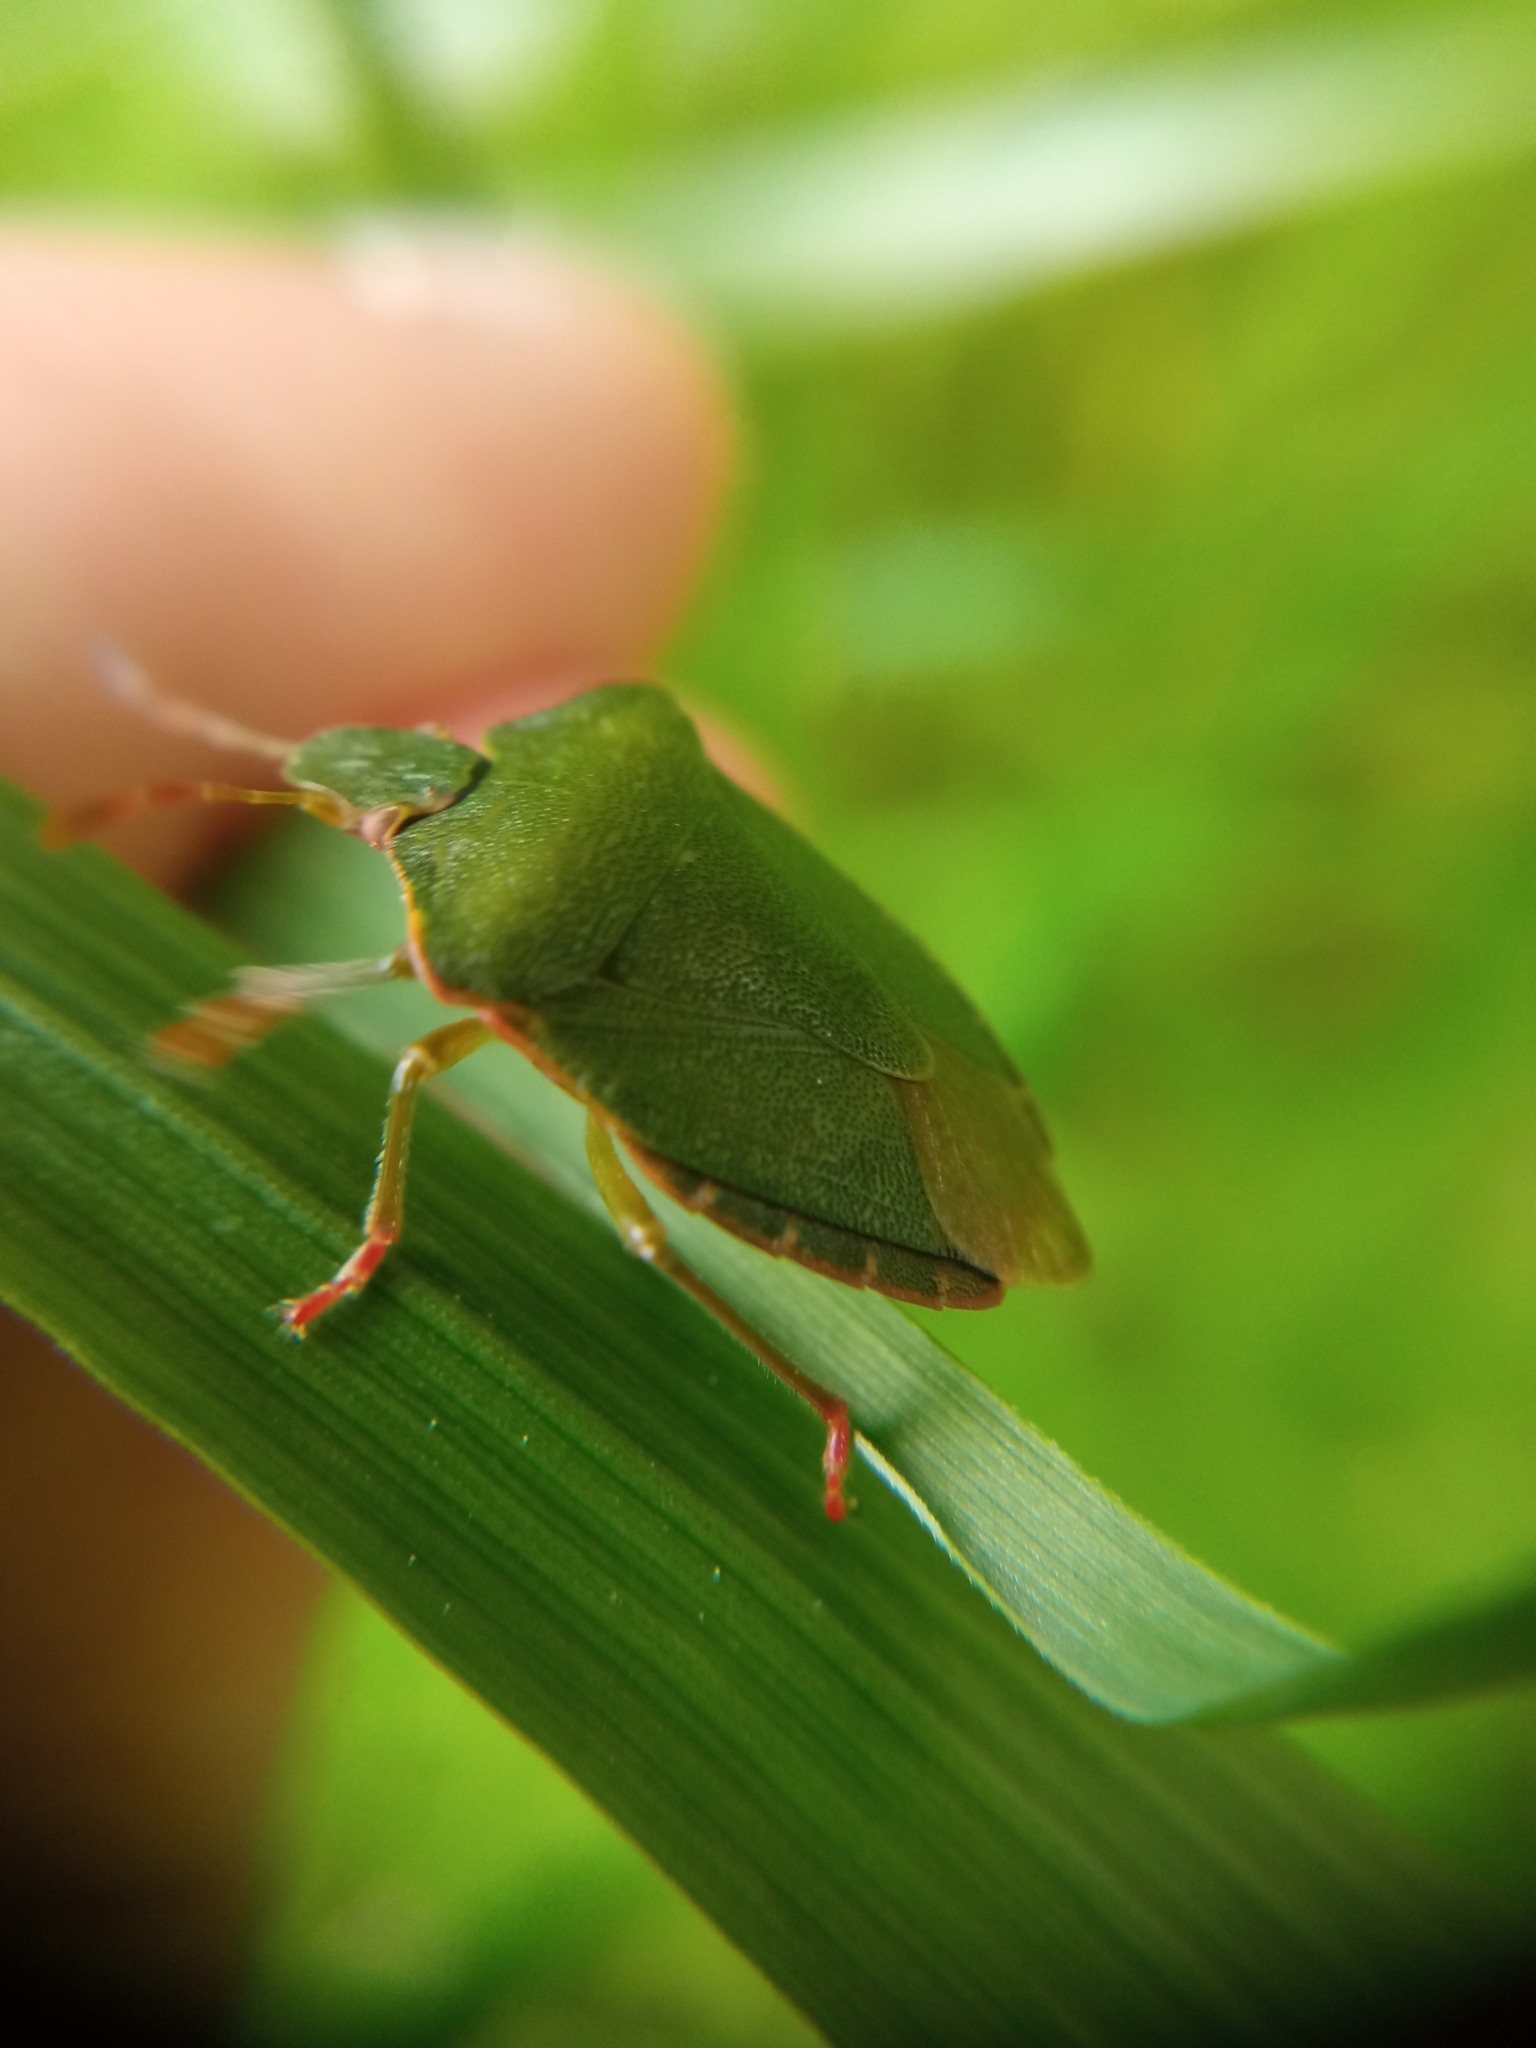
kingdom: Animalia
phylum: Arthropoda
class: Insecta
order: Hemiptera
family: Pentatomidae
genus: Palomena
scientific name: Palomena prasina
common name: Green shieldbug
